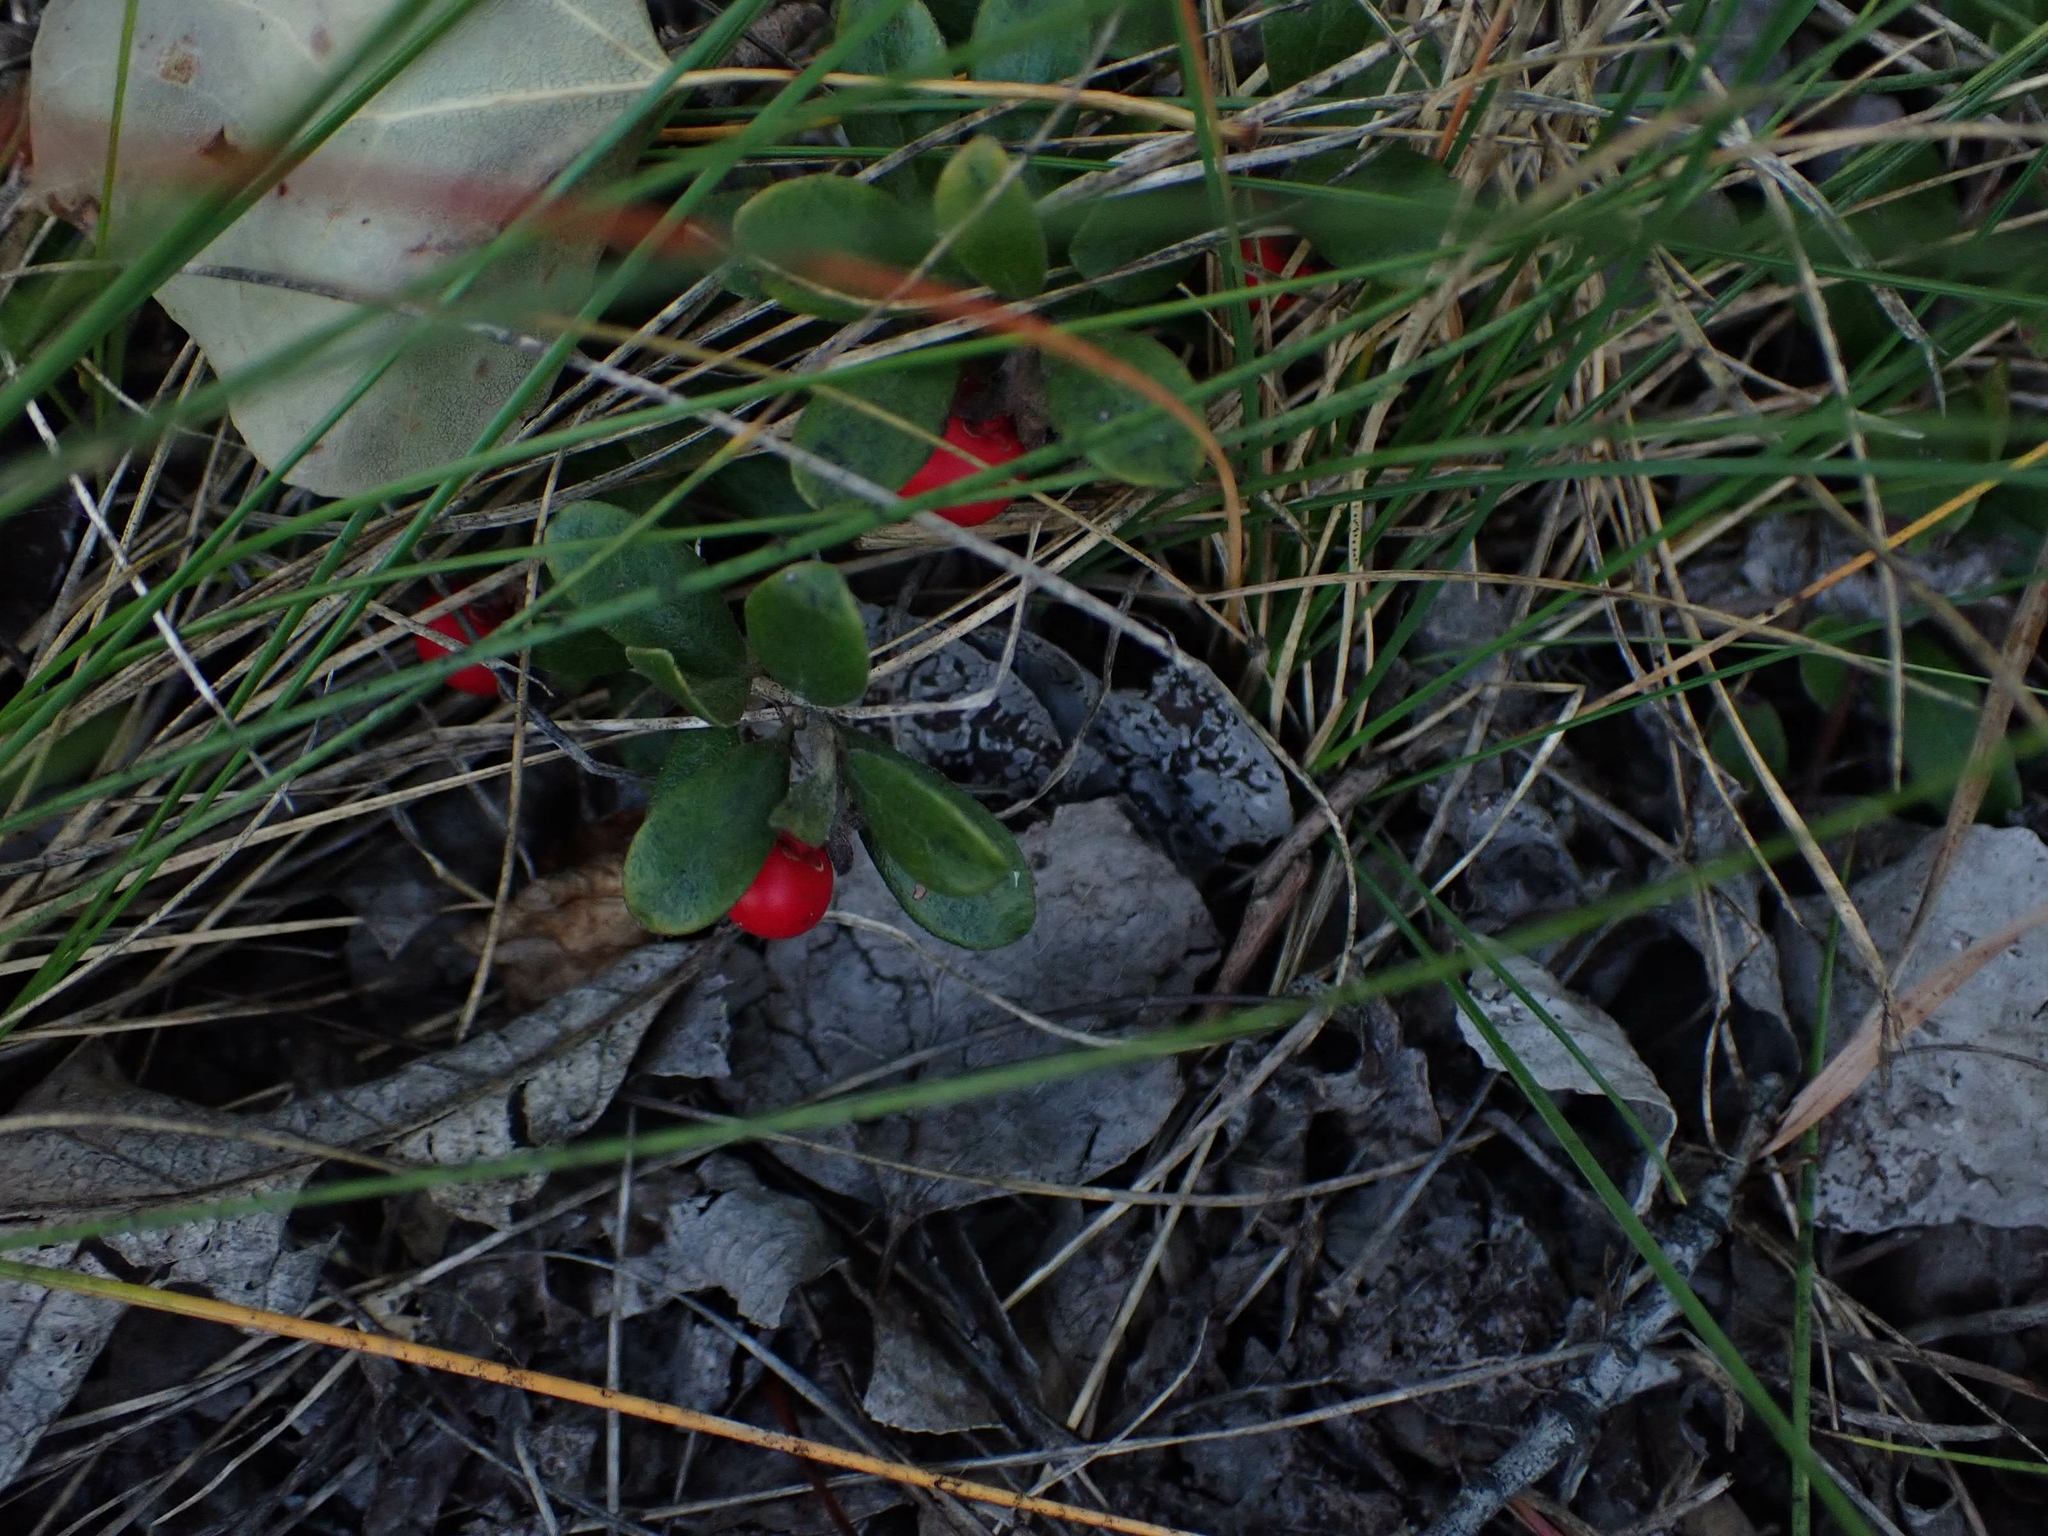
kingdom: Plantae
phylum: Tracheophyta
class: Magnoliopsida
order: Ericales
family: Ericaceae
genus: Arctostaphylos
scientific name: Arctostaphylos uva-ursi
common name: Bearberry
